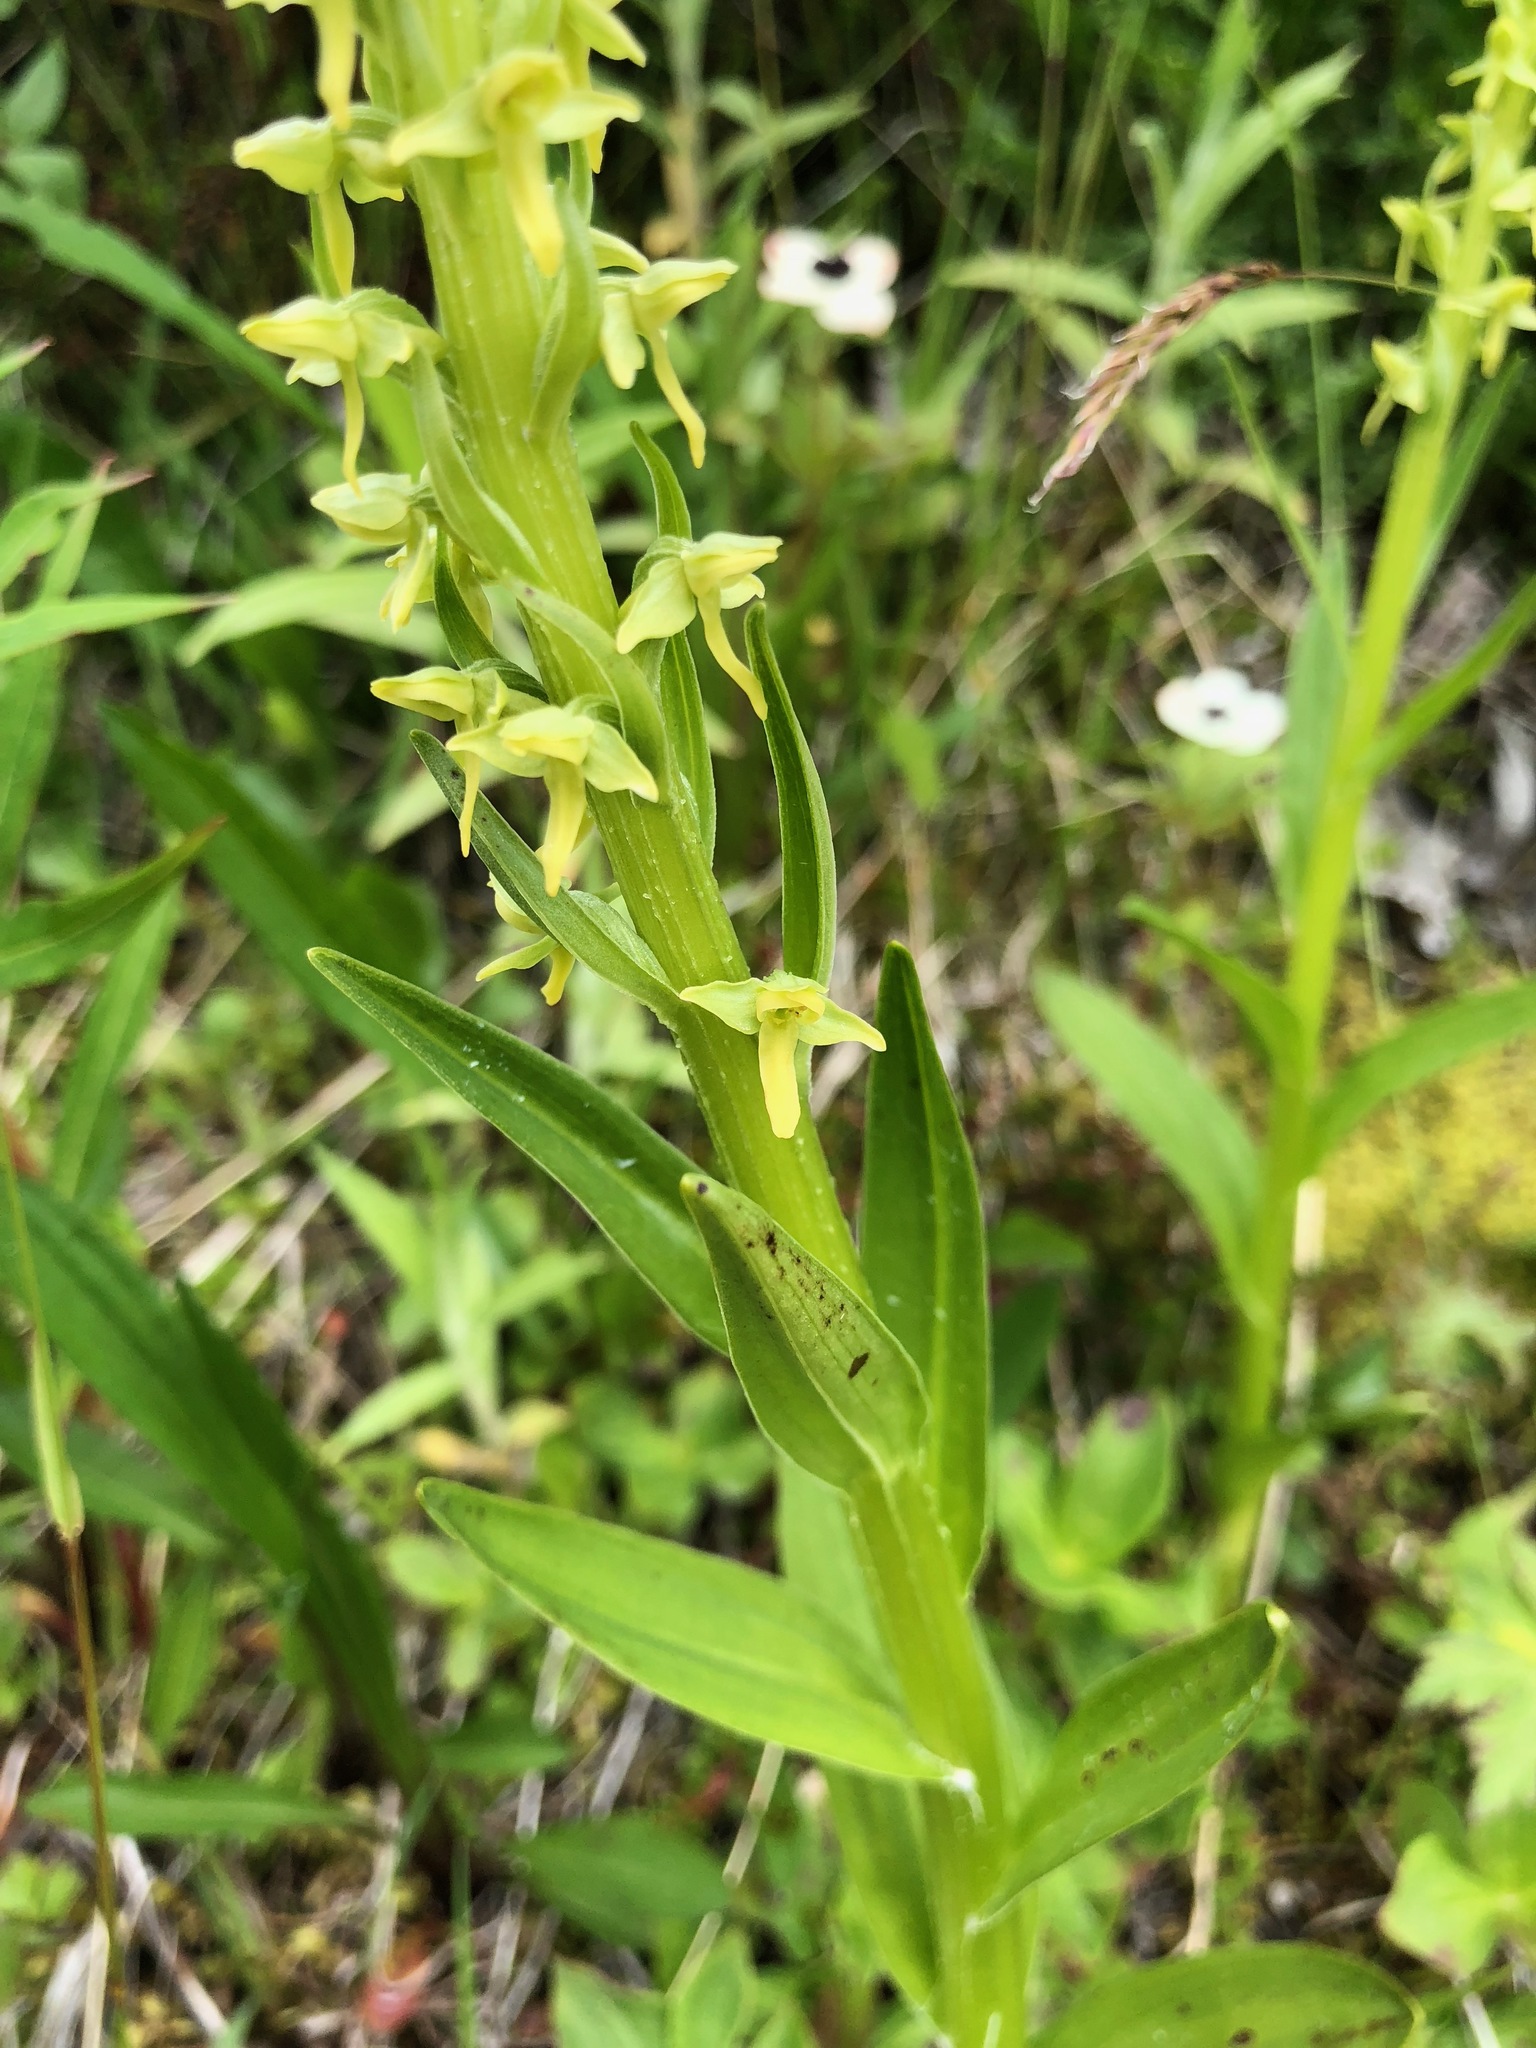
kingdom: Plantae
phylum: Tracheophyta
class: Liliopsida
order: Asparagales
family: Orchidaceae
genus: Platanthera
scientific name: Platanthera stricta
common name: Slender bog orchid
